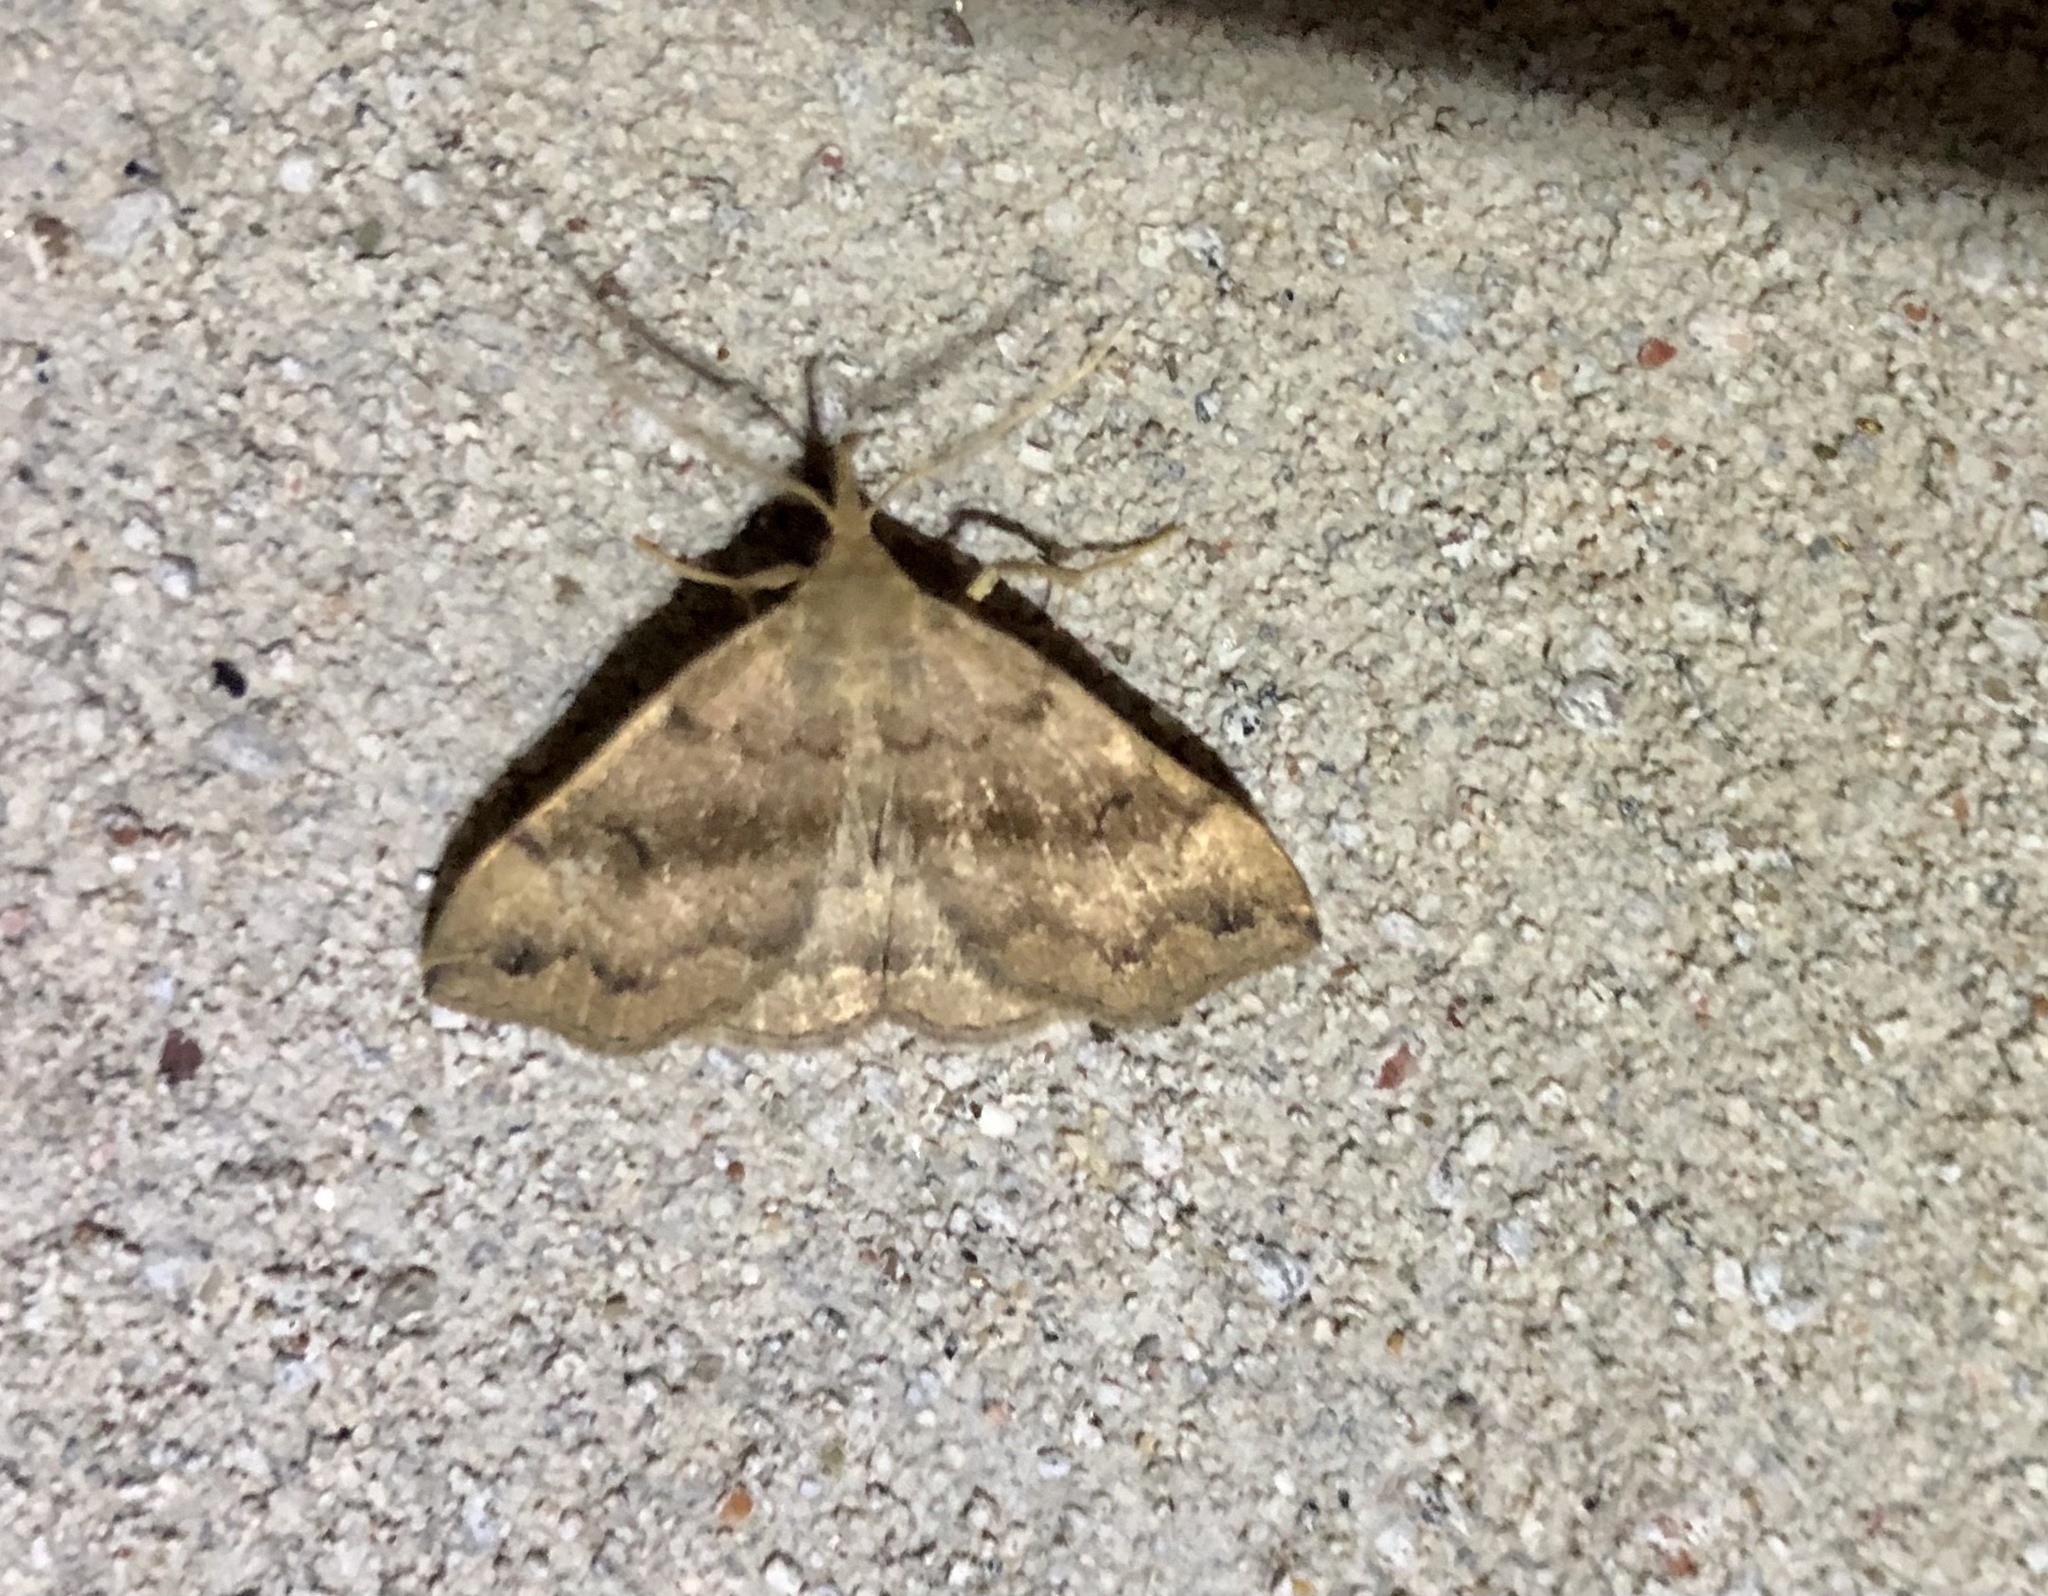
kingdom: Animalia
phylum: Arthropoda
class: Insecta
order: Lepidoptera
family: Erebidae
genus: Phalaenostola
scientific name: Phalaenostola eumelusalis
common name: Dark phalaenostola moth
